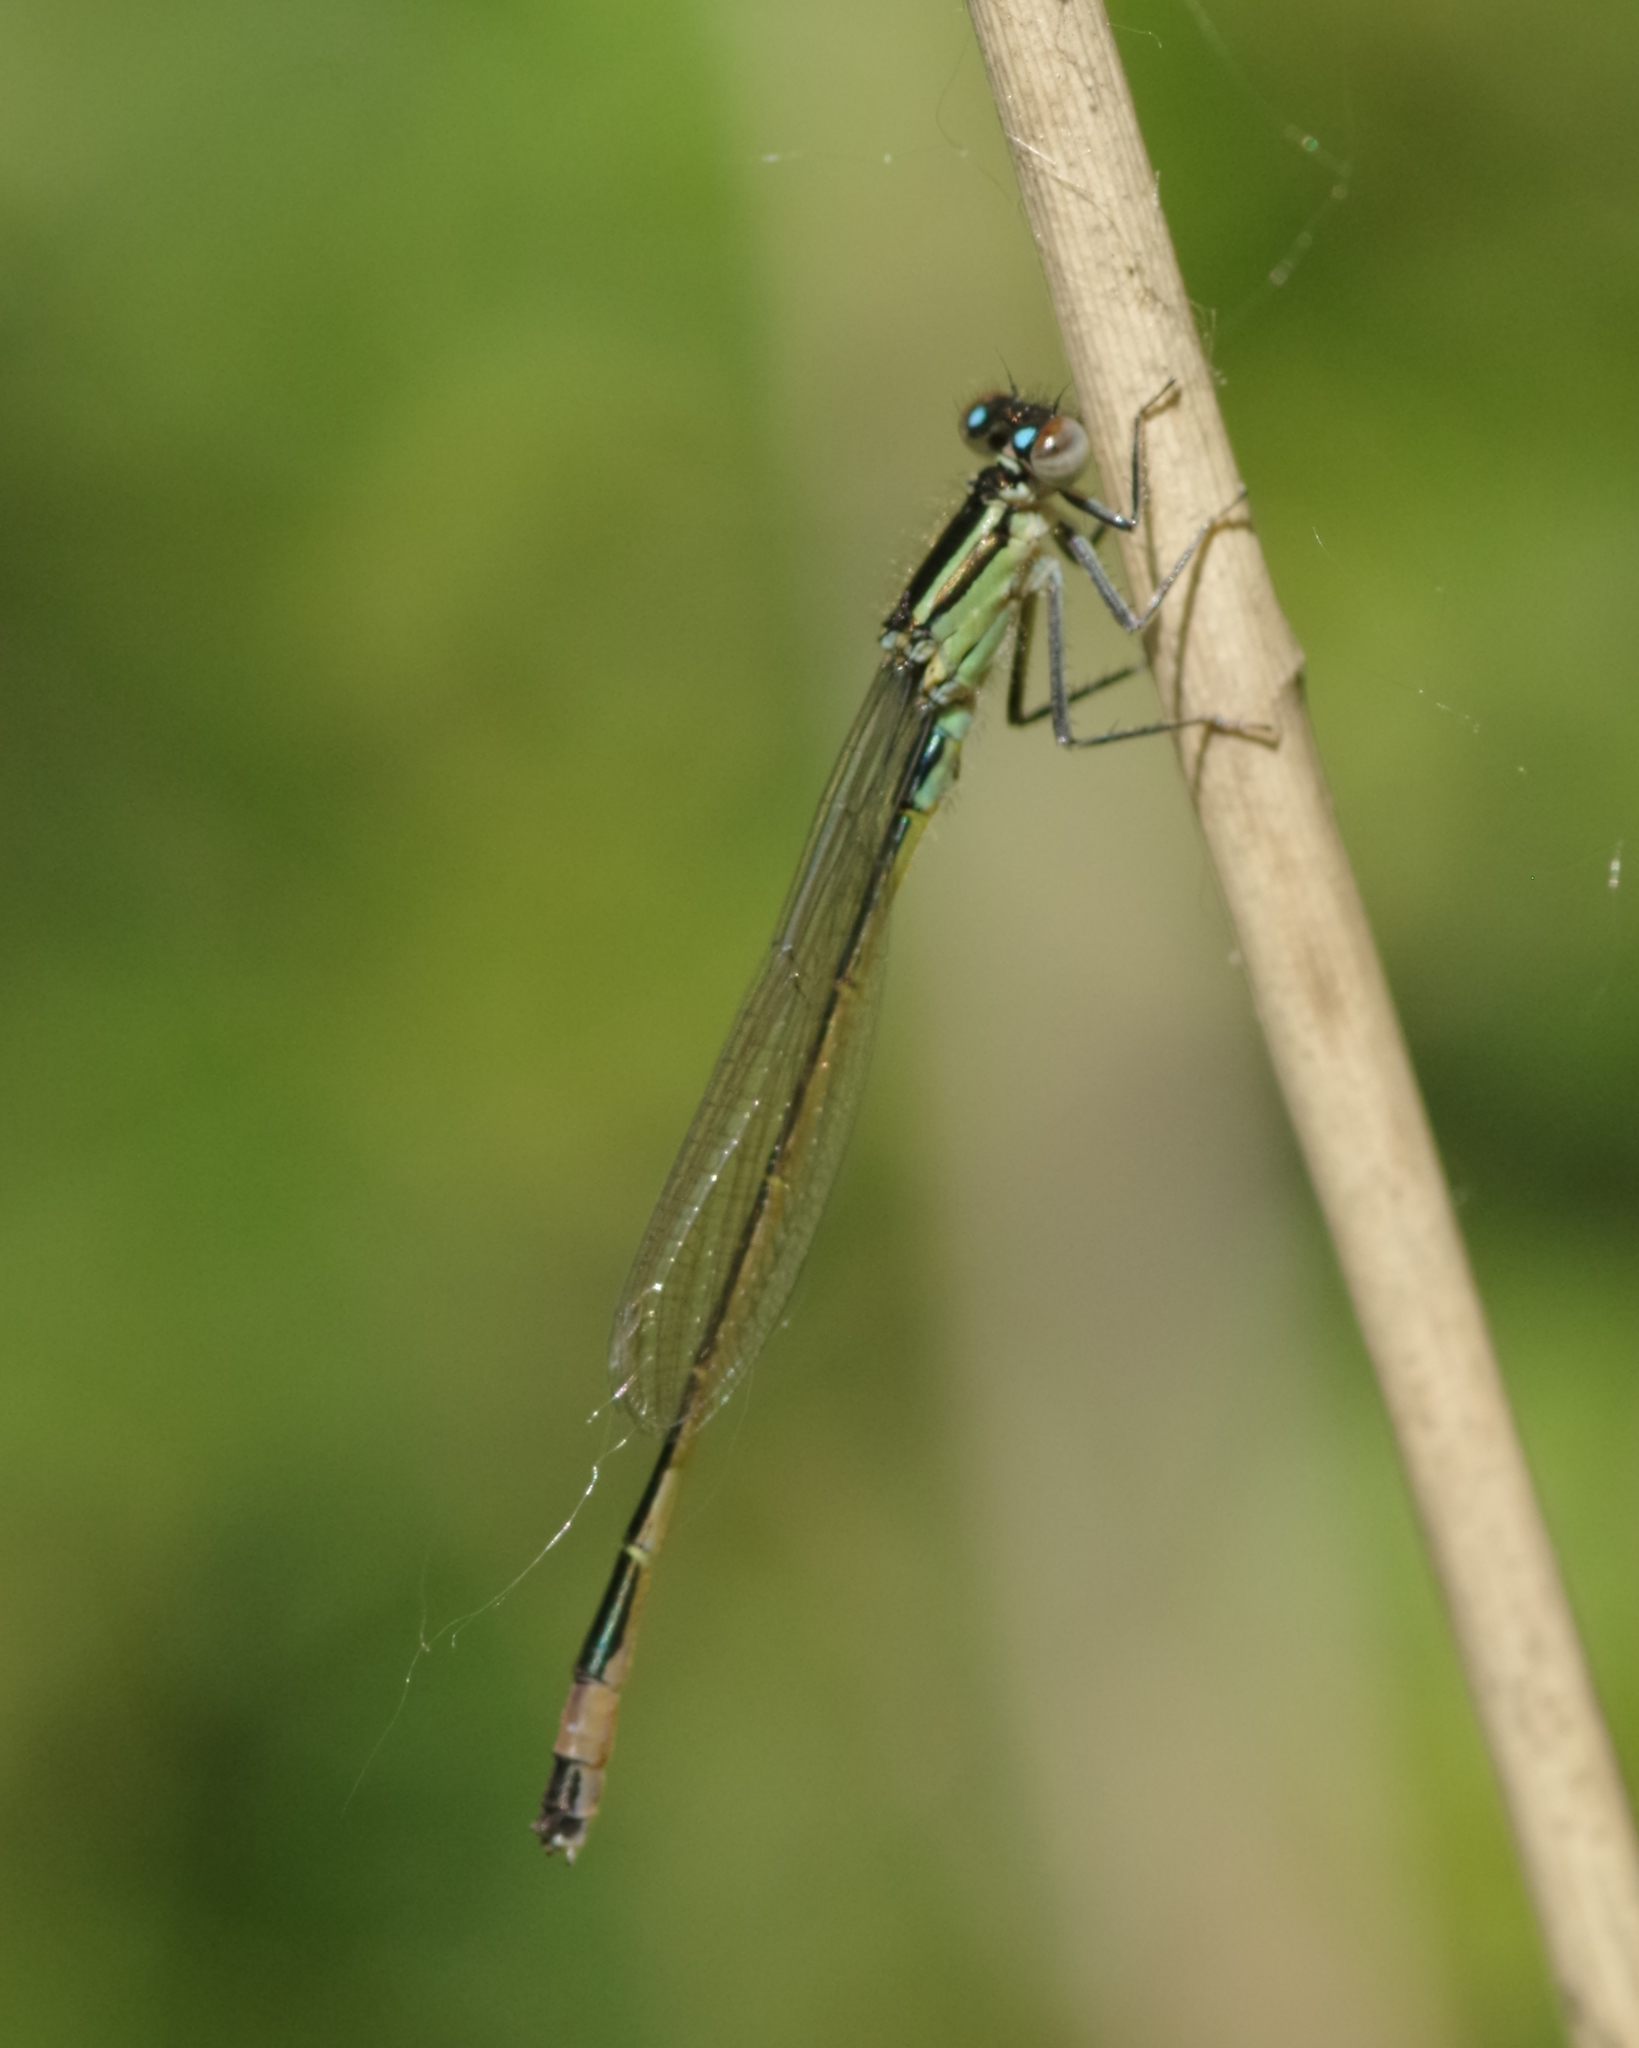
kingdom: Animalia
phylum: Arthropoda
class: Insecta
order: Odonata
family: Coenagrionidae
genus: Ischnura
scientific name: Ischnura elegans
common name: Blue-tailed damselfly
